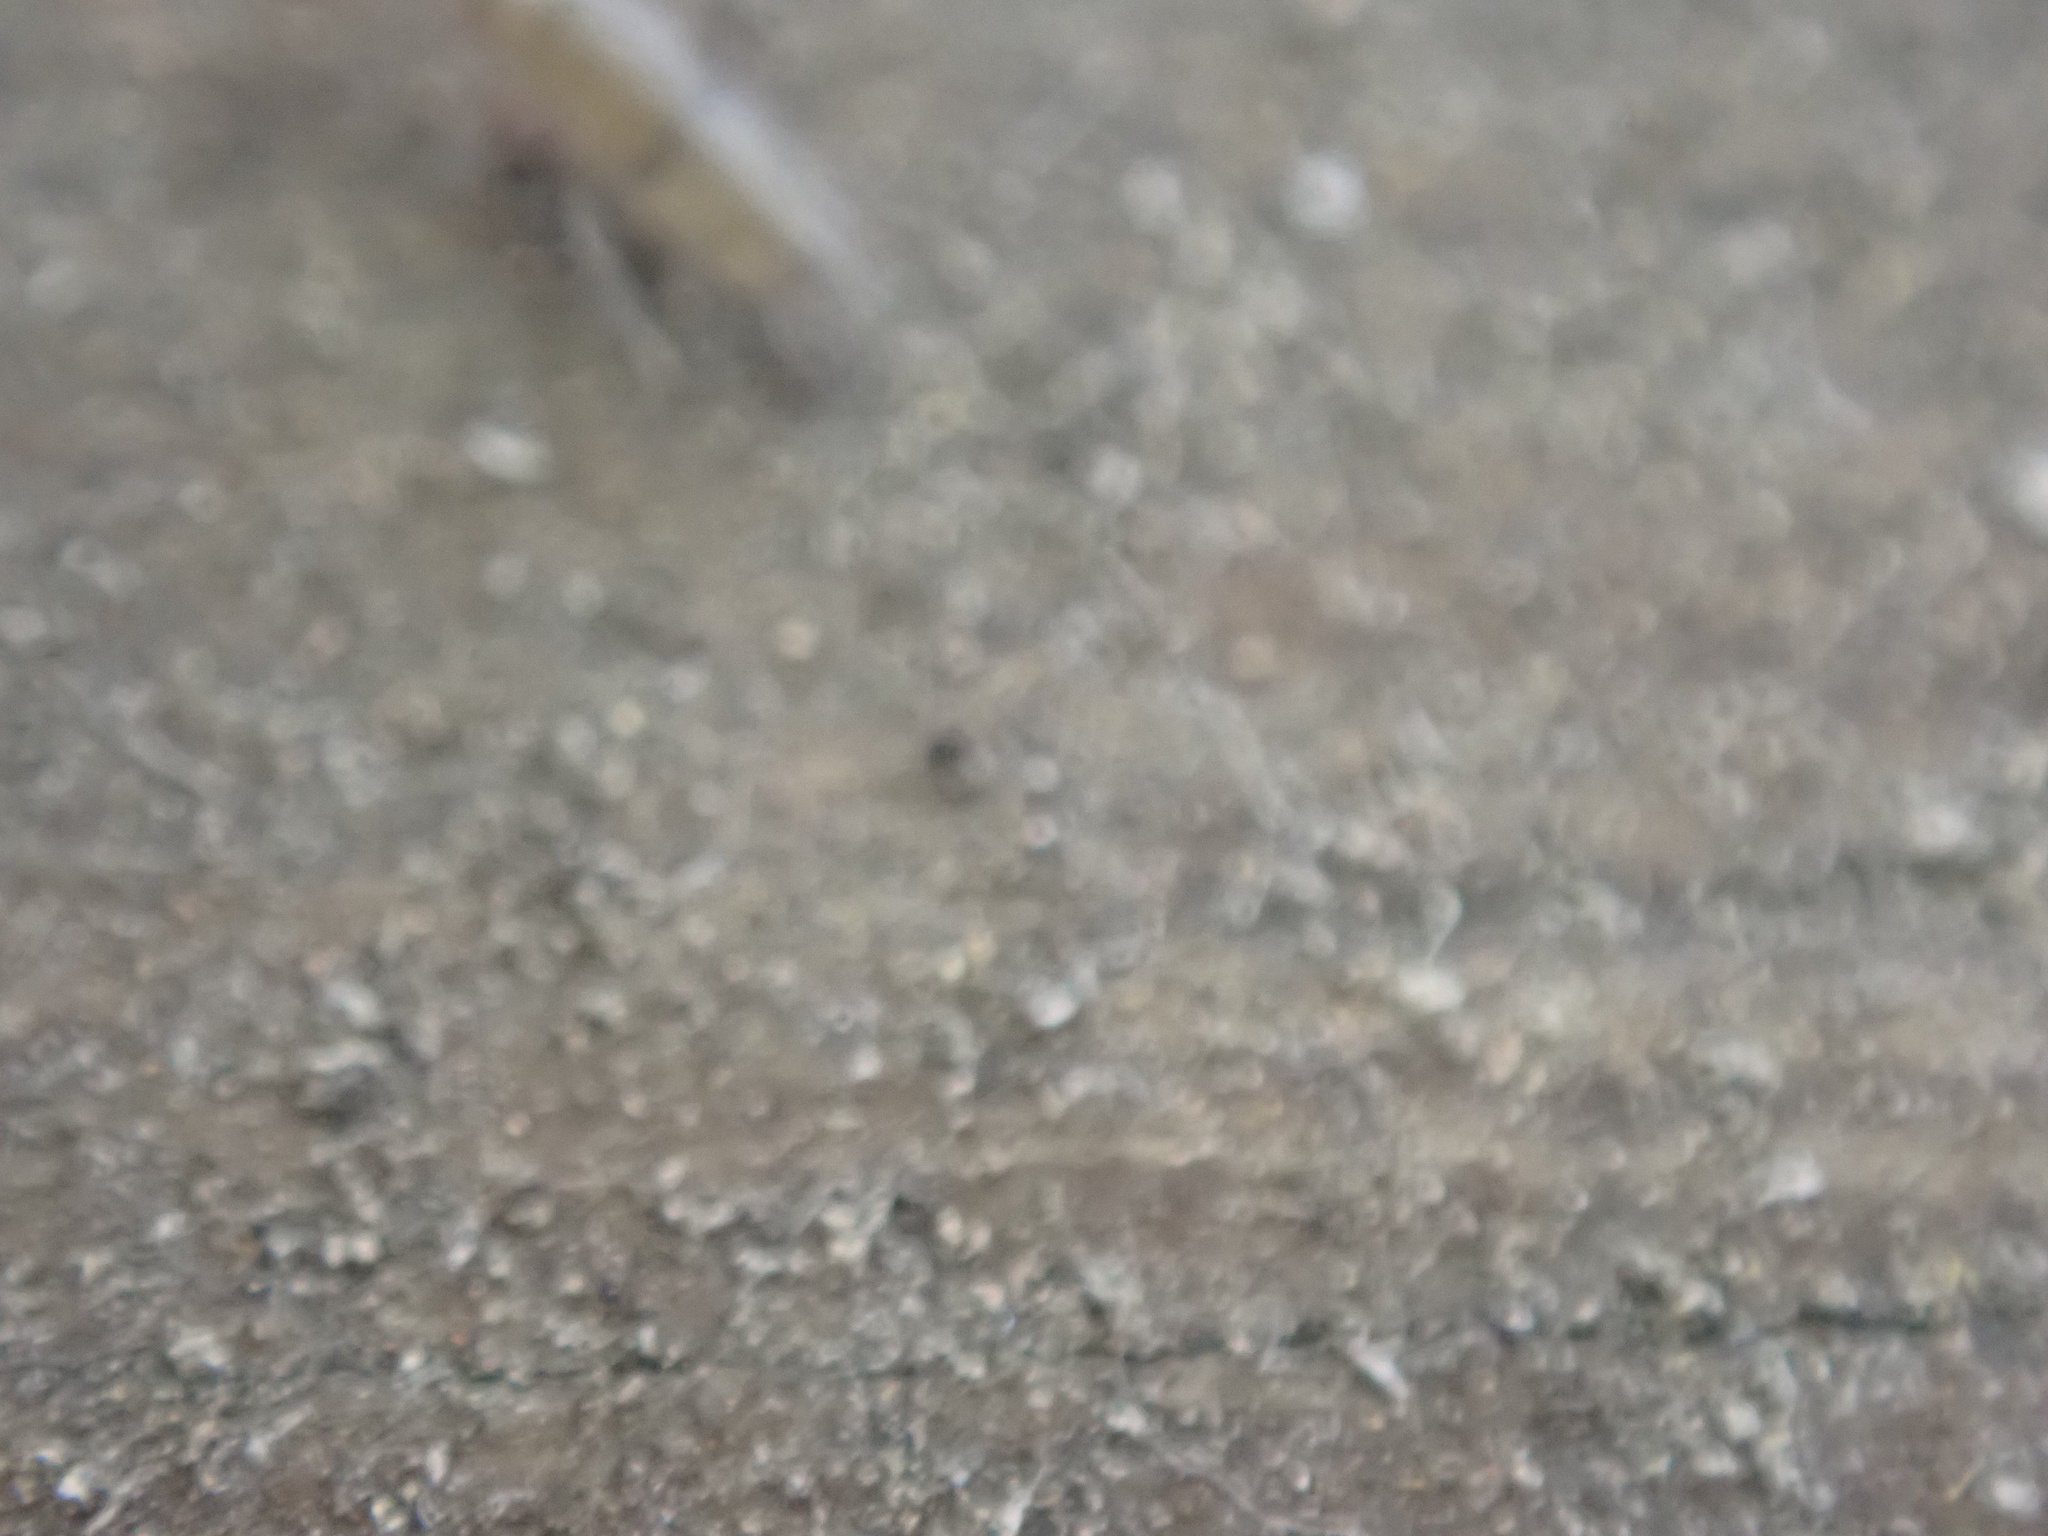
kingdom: Animalia
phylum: Arthropoda
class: Collembola
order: Entomobryomorpha
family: Entomobryidae
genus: Willowsia
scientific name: Willowsia nigromaculata
